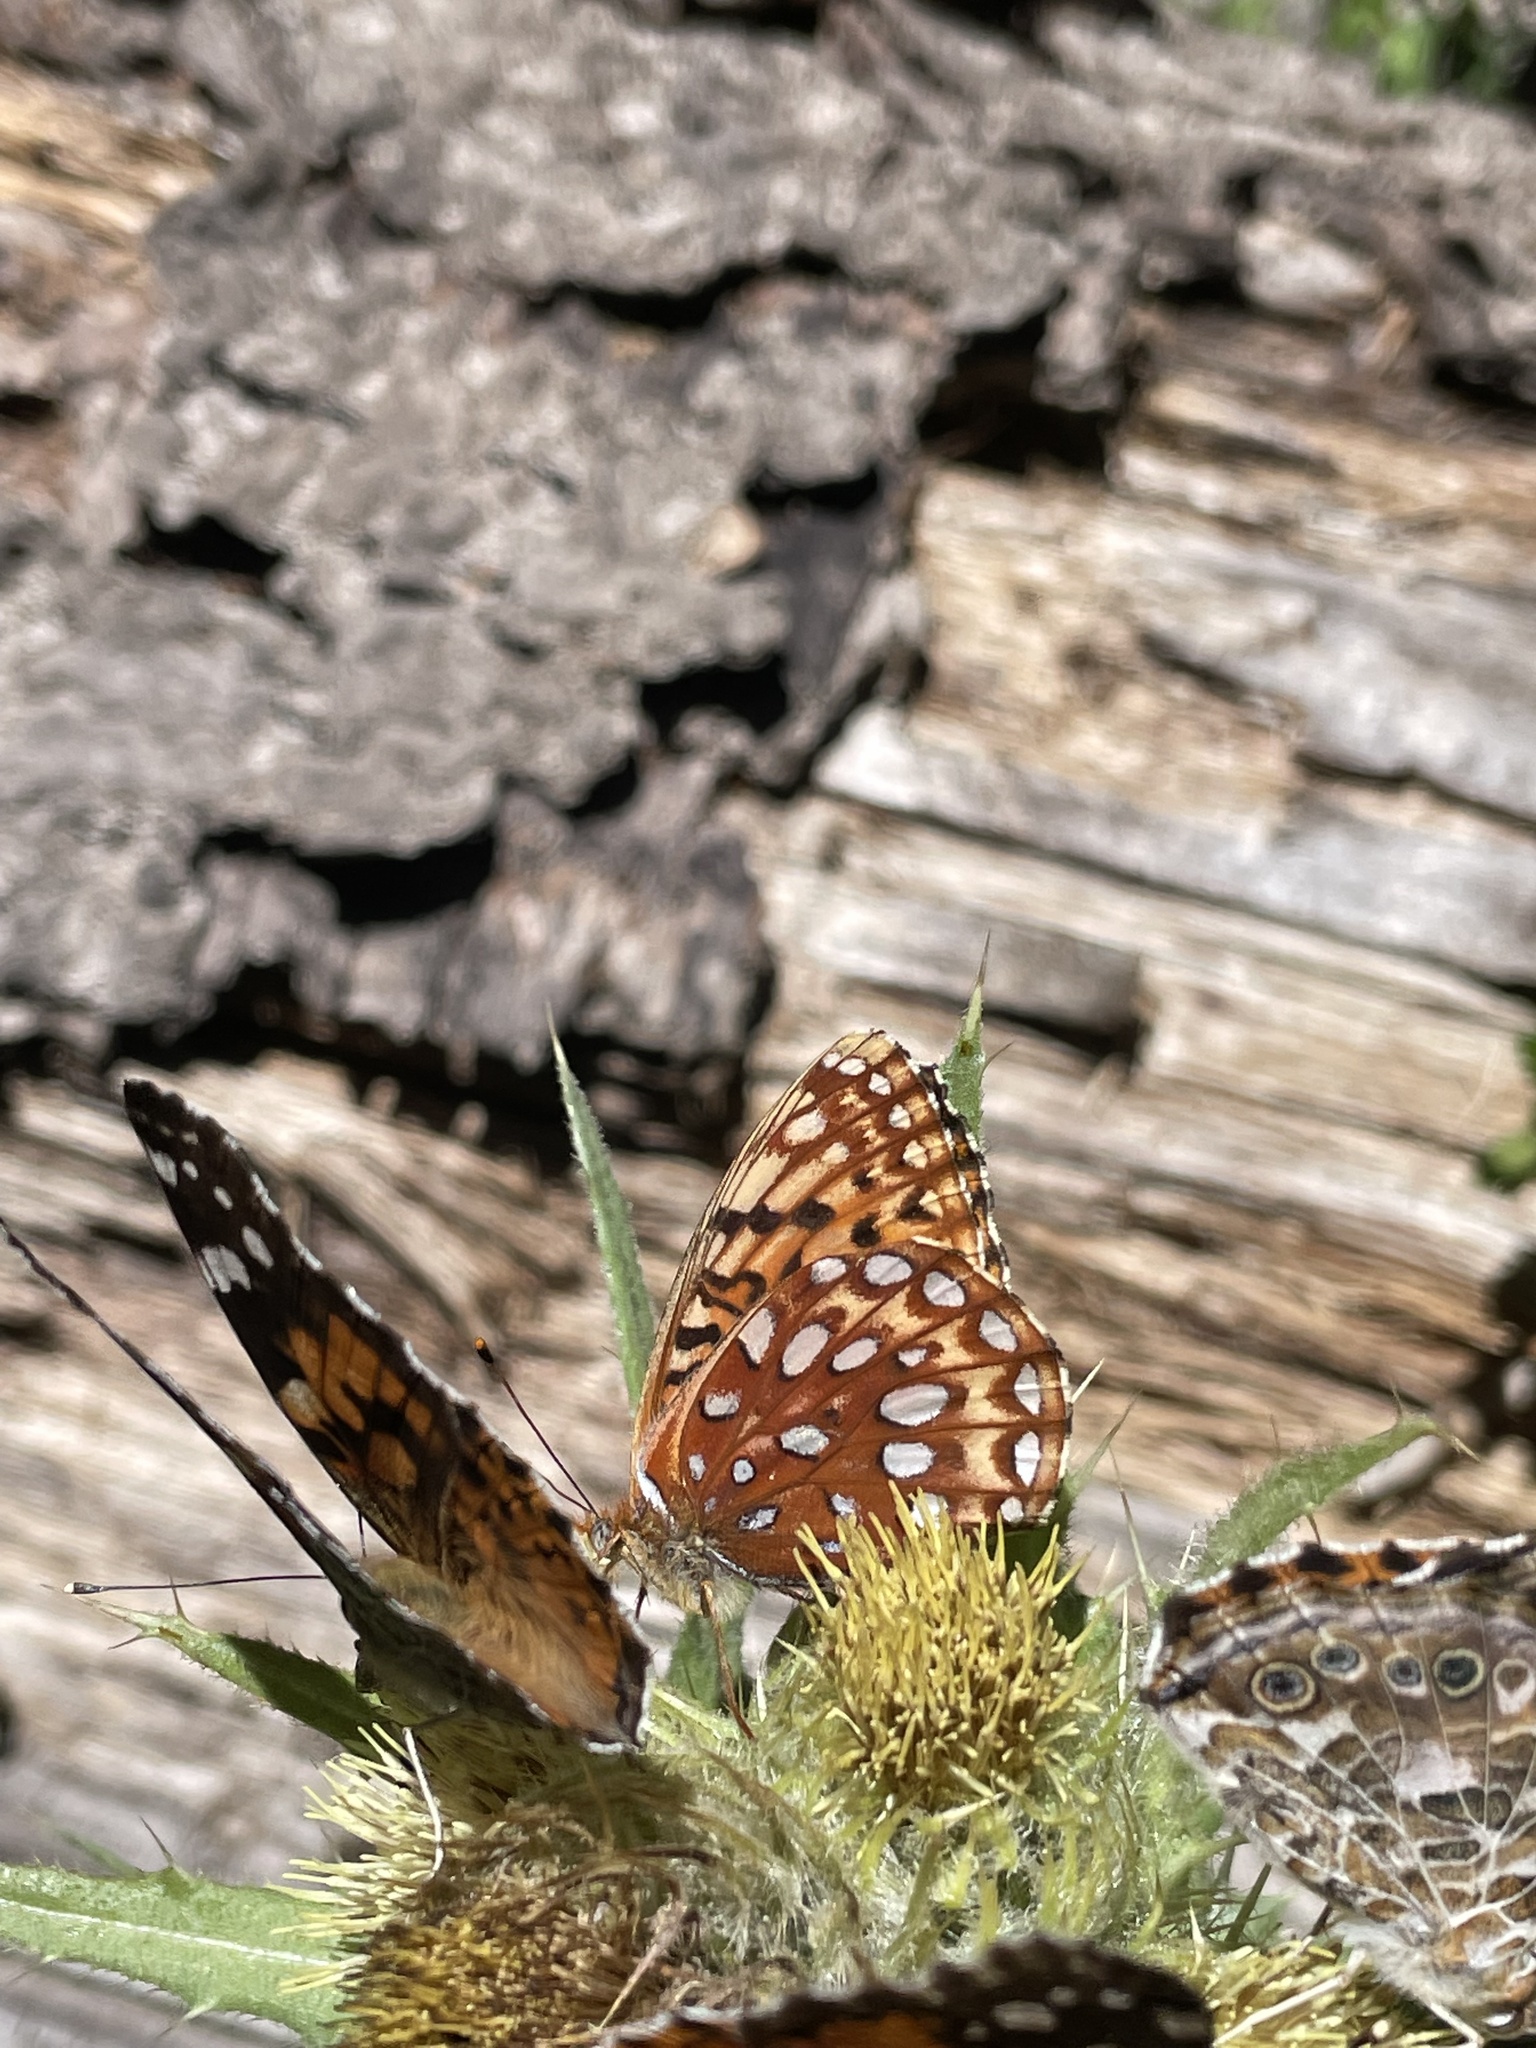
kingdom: Animalia
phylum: Arthropoda
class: Insecta
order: Lepidoptera
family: Nymphalidae
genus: Speyeria
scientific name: Speyeria atlantis
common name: Atlantis fritillary
